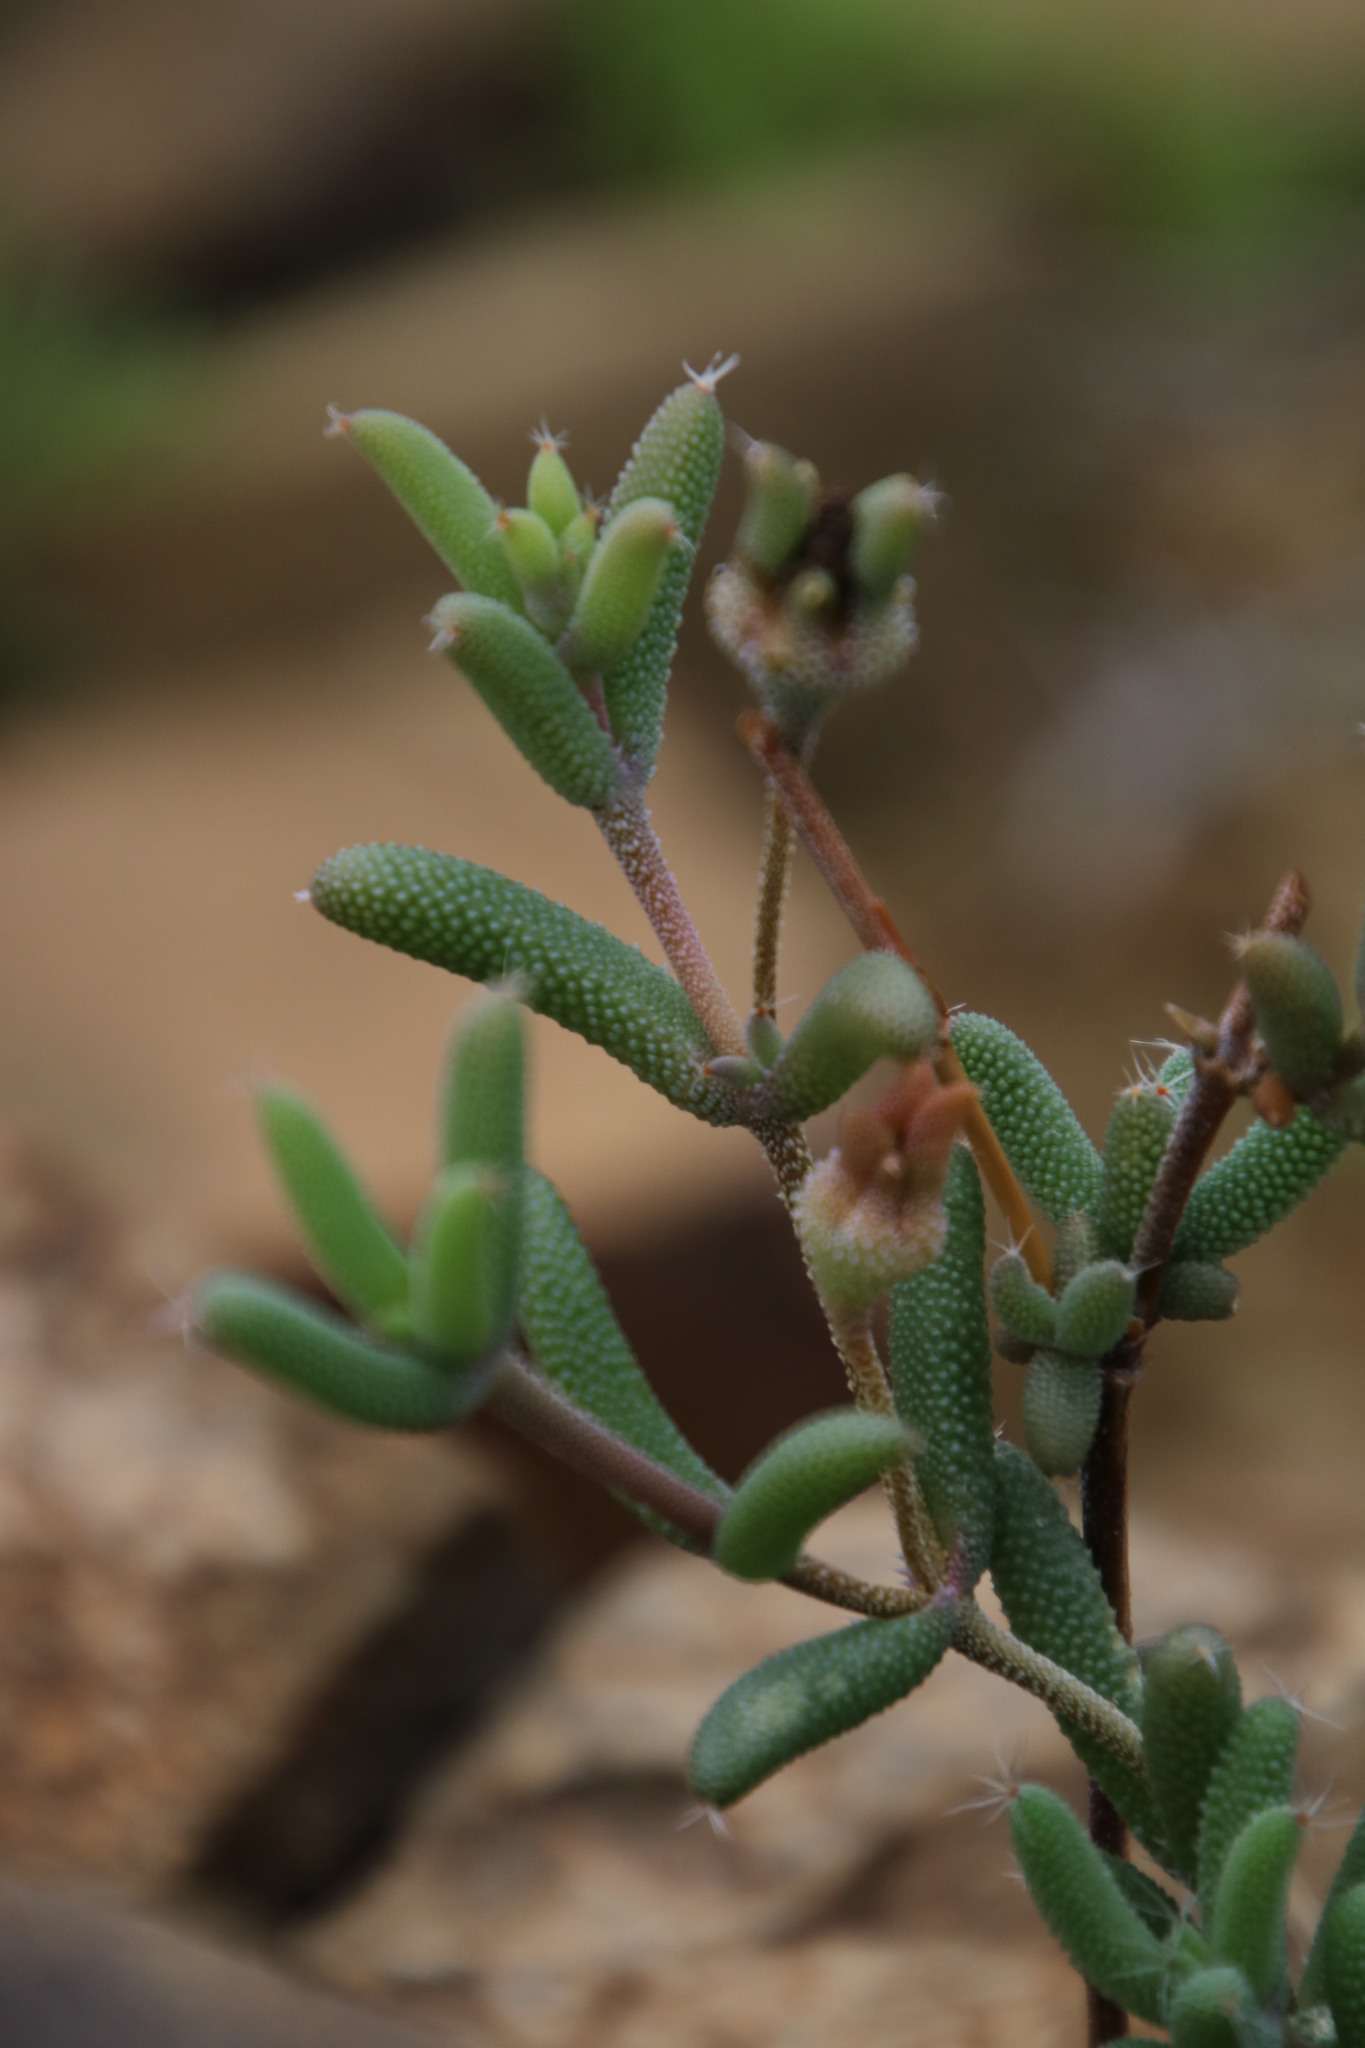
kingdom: Plantae
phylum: Tracheophyta
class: Magnoliopsida
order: Caryophyllales
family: Aizoaceae
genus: Trichodiadema
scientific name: Trichodiadema pomeridianum
